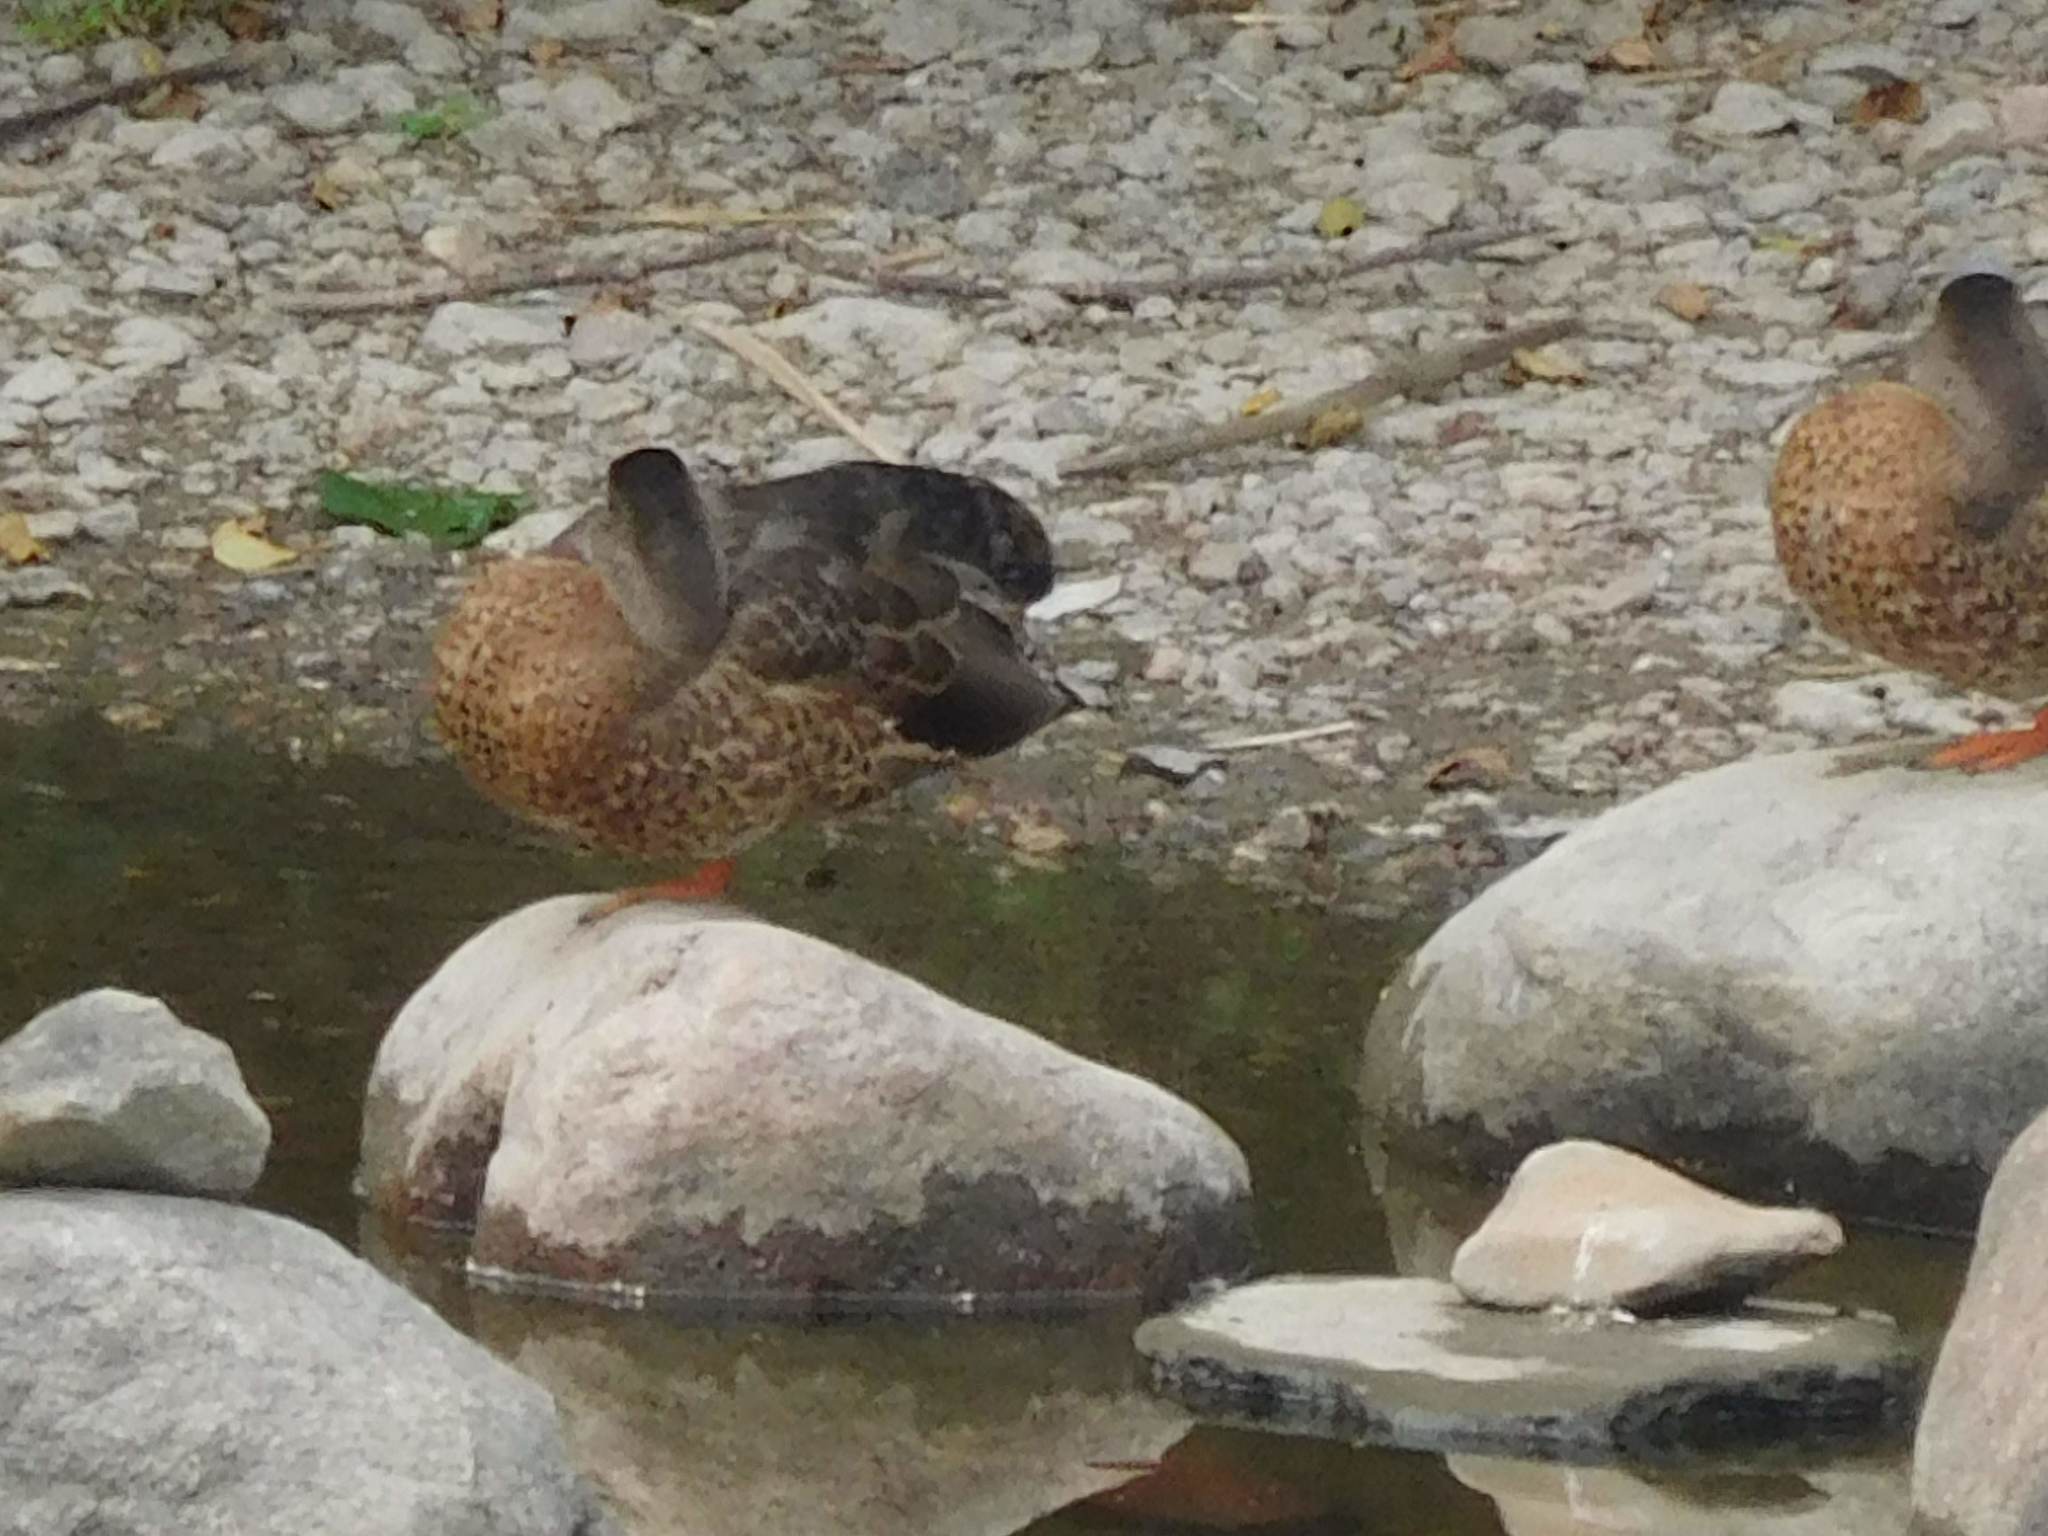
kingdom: Animalia
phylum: Chordata
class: Aves
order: Anseriformes
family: Anatidae
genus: Anas
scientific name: Anas platyrhynchos
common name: Mallard
